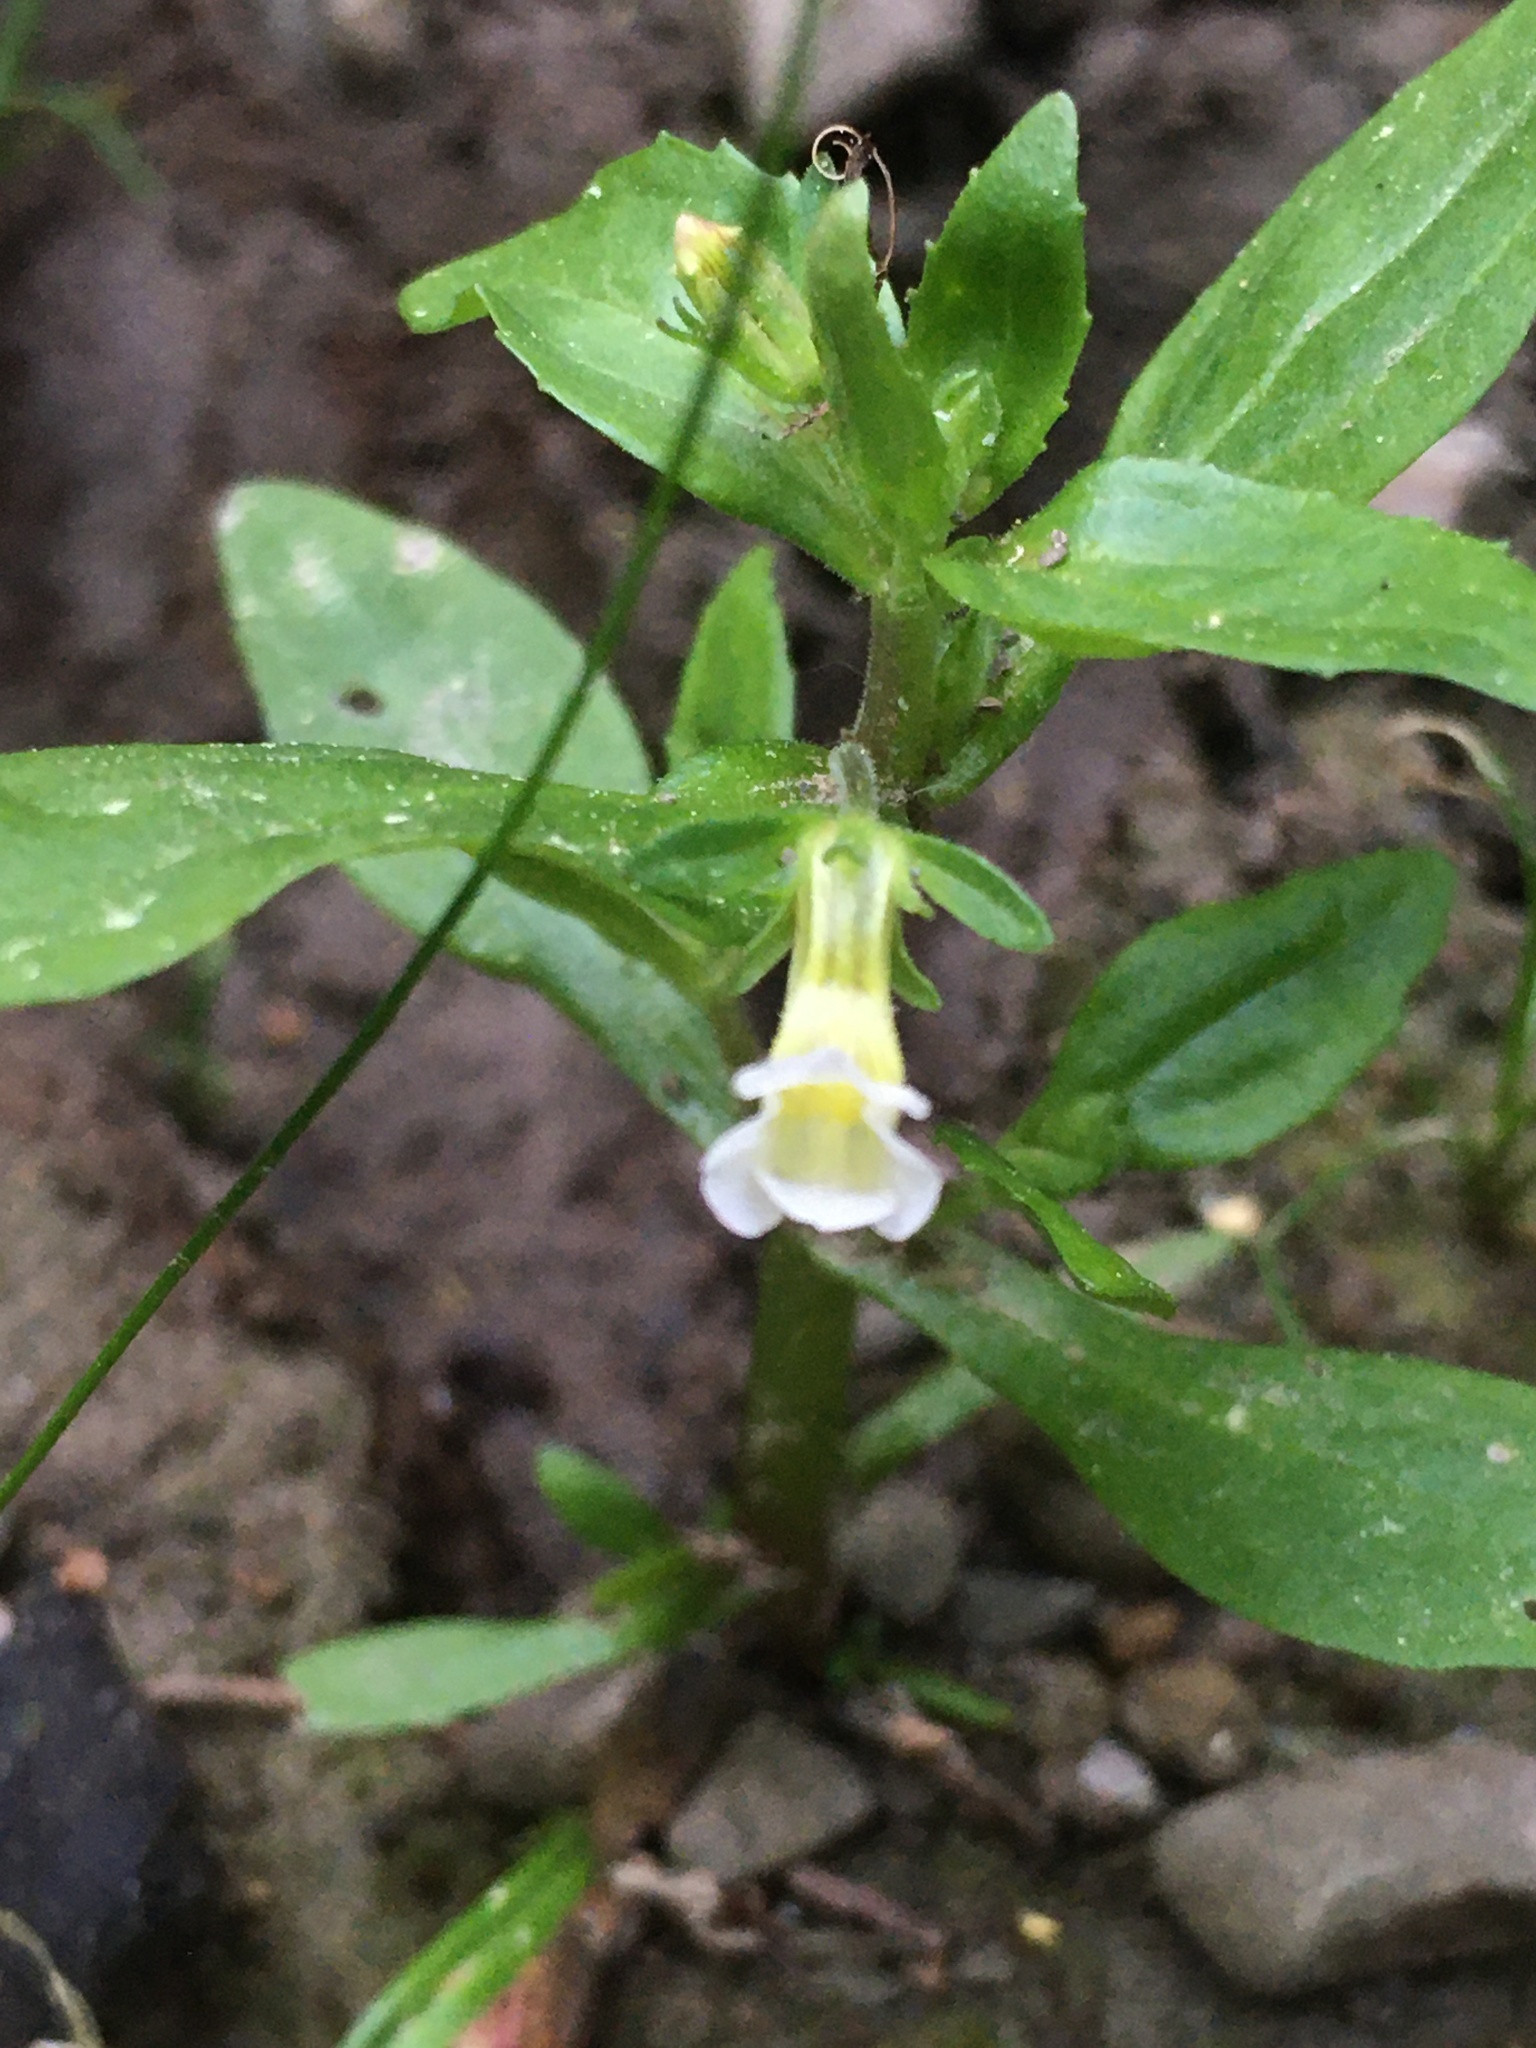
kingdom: Plantae
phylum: Tracheophyta
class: Magnoliopsida
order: Lamiales
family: Plantaginaceae
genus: Gratiola
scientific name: Gratiola neglecta
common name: American hedge-hyssop
